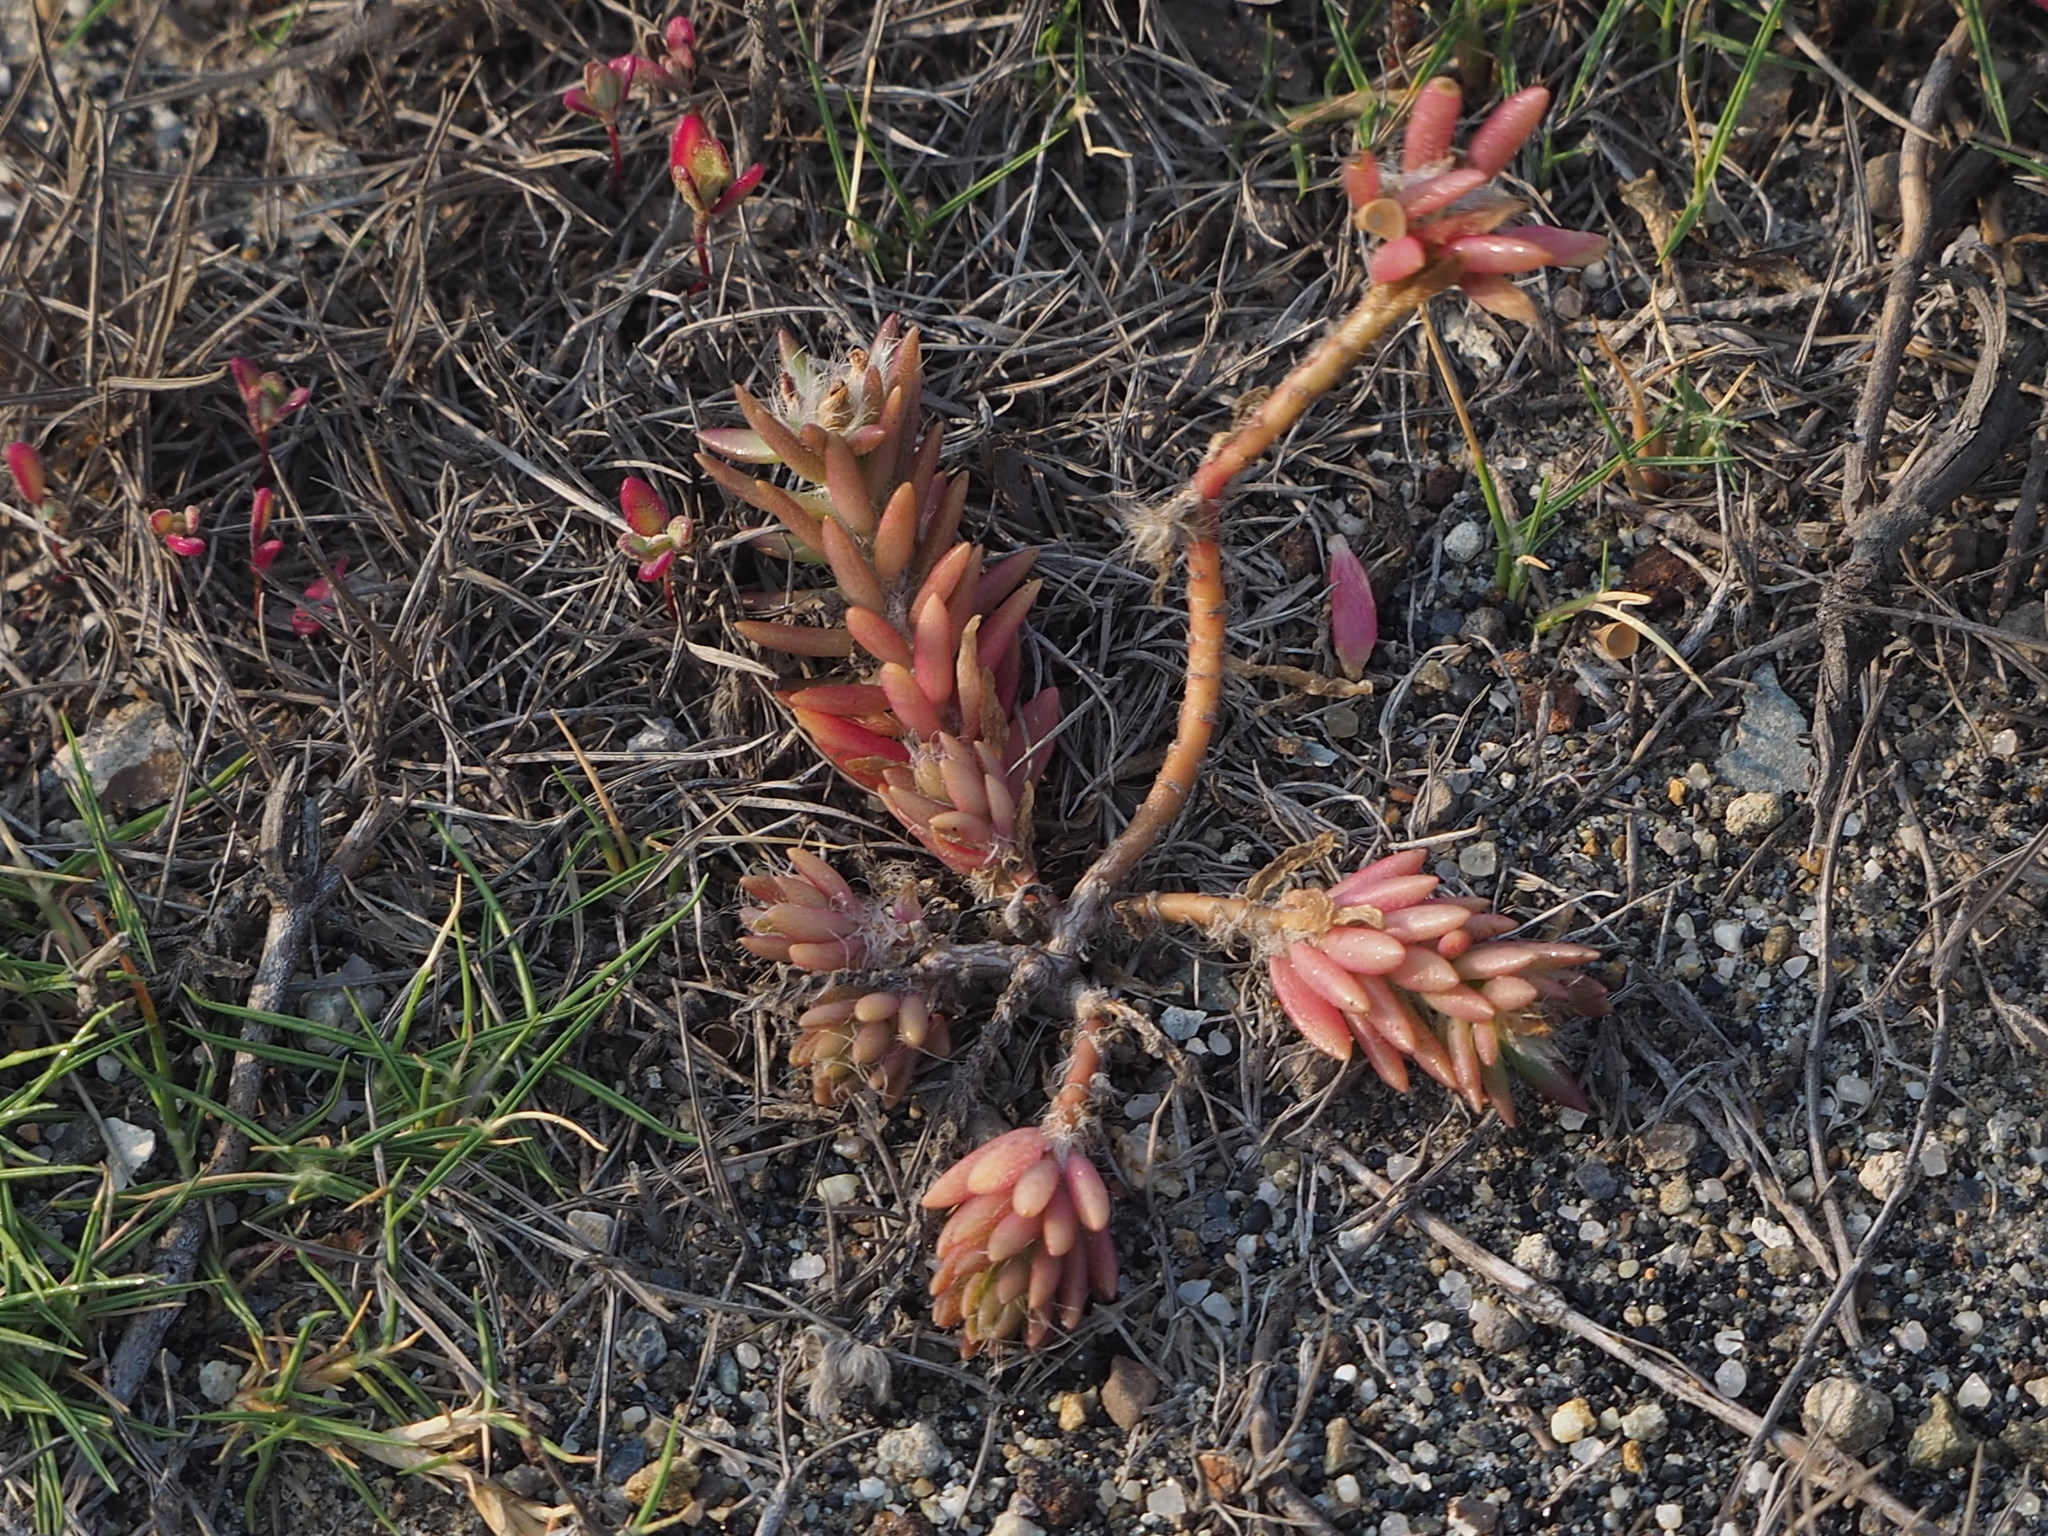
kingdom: Plantae
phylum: Tracheophyta
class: Magnoliopsida
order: Caryophyllales
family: Portulacaceae
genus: Portulaca
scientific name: Portulaca pilosa
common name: Kiss me quick
